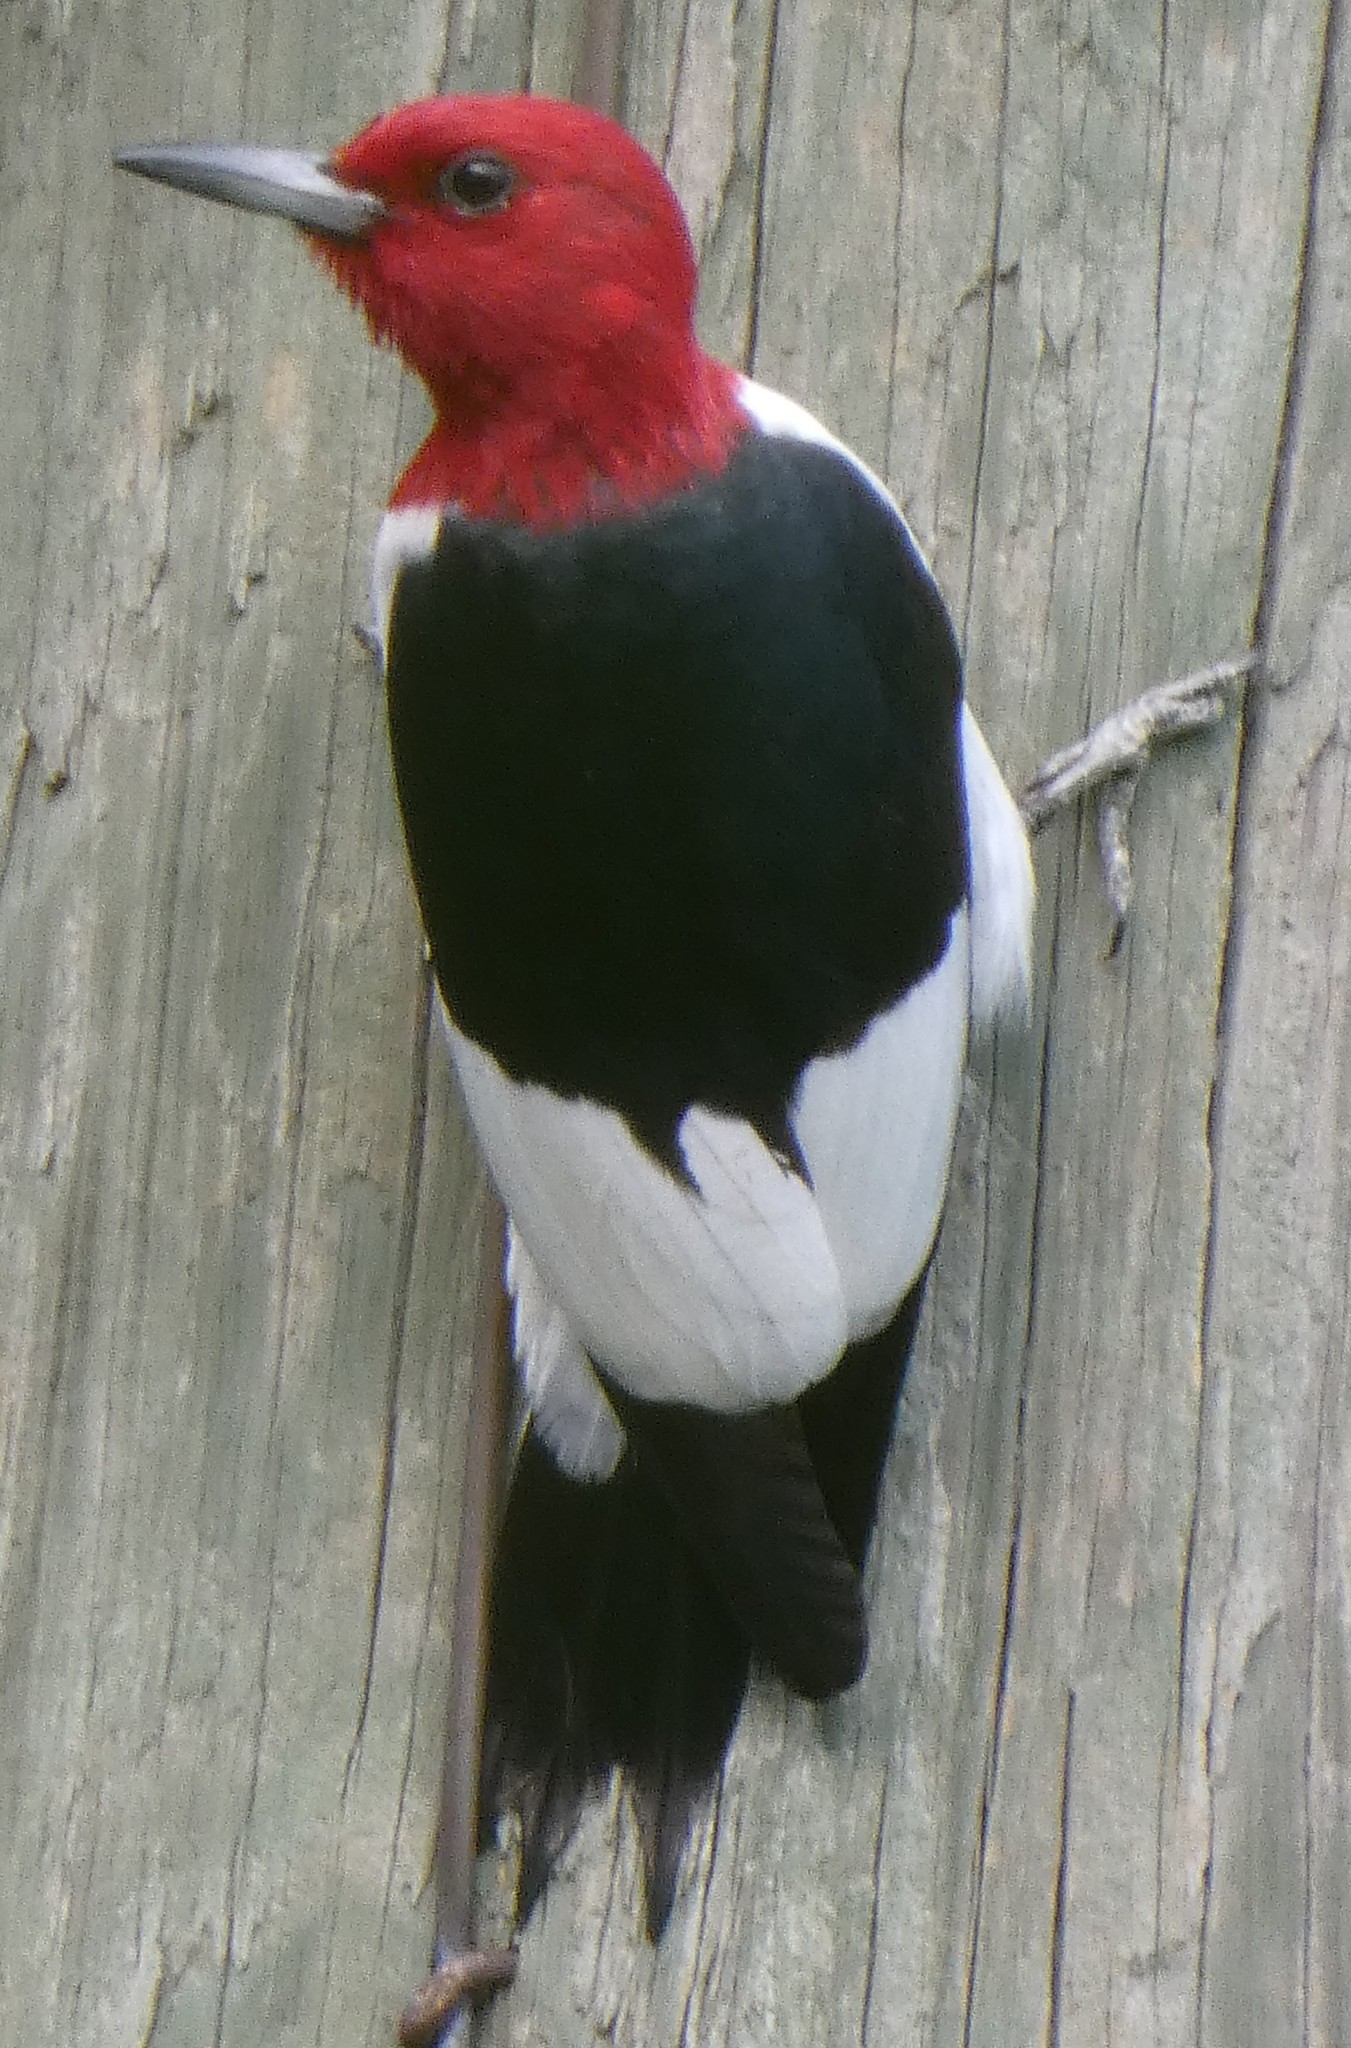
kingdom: Animalia
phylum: Chordata
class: Aves
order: Piciformes
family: Picidae
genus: Melanerpes
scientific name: Melanerpes erythrocephalus
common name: Red-headed woodpecker
